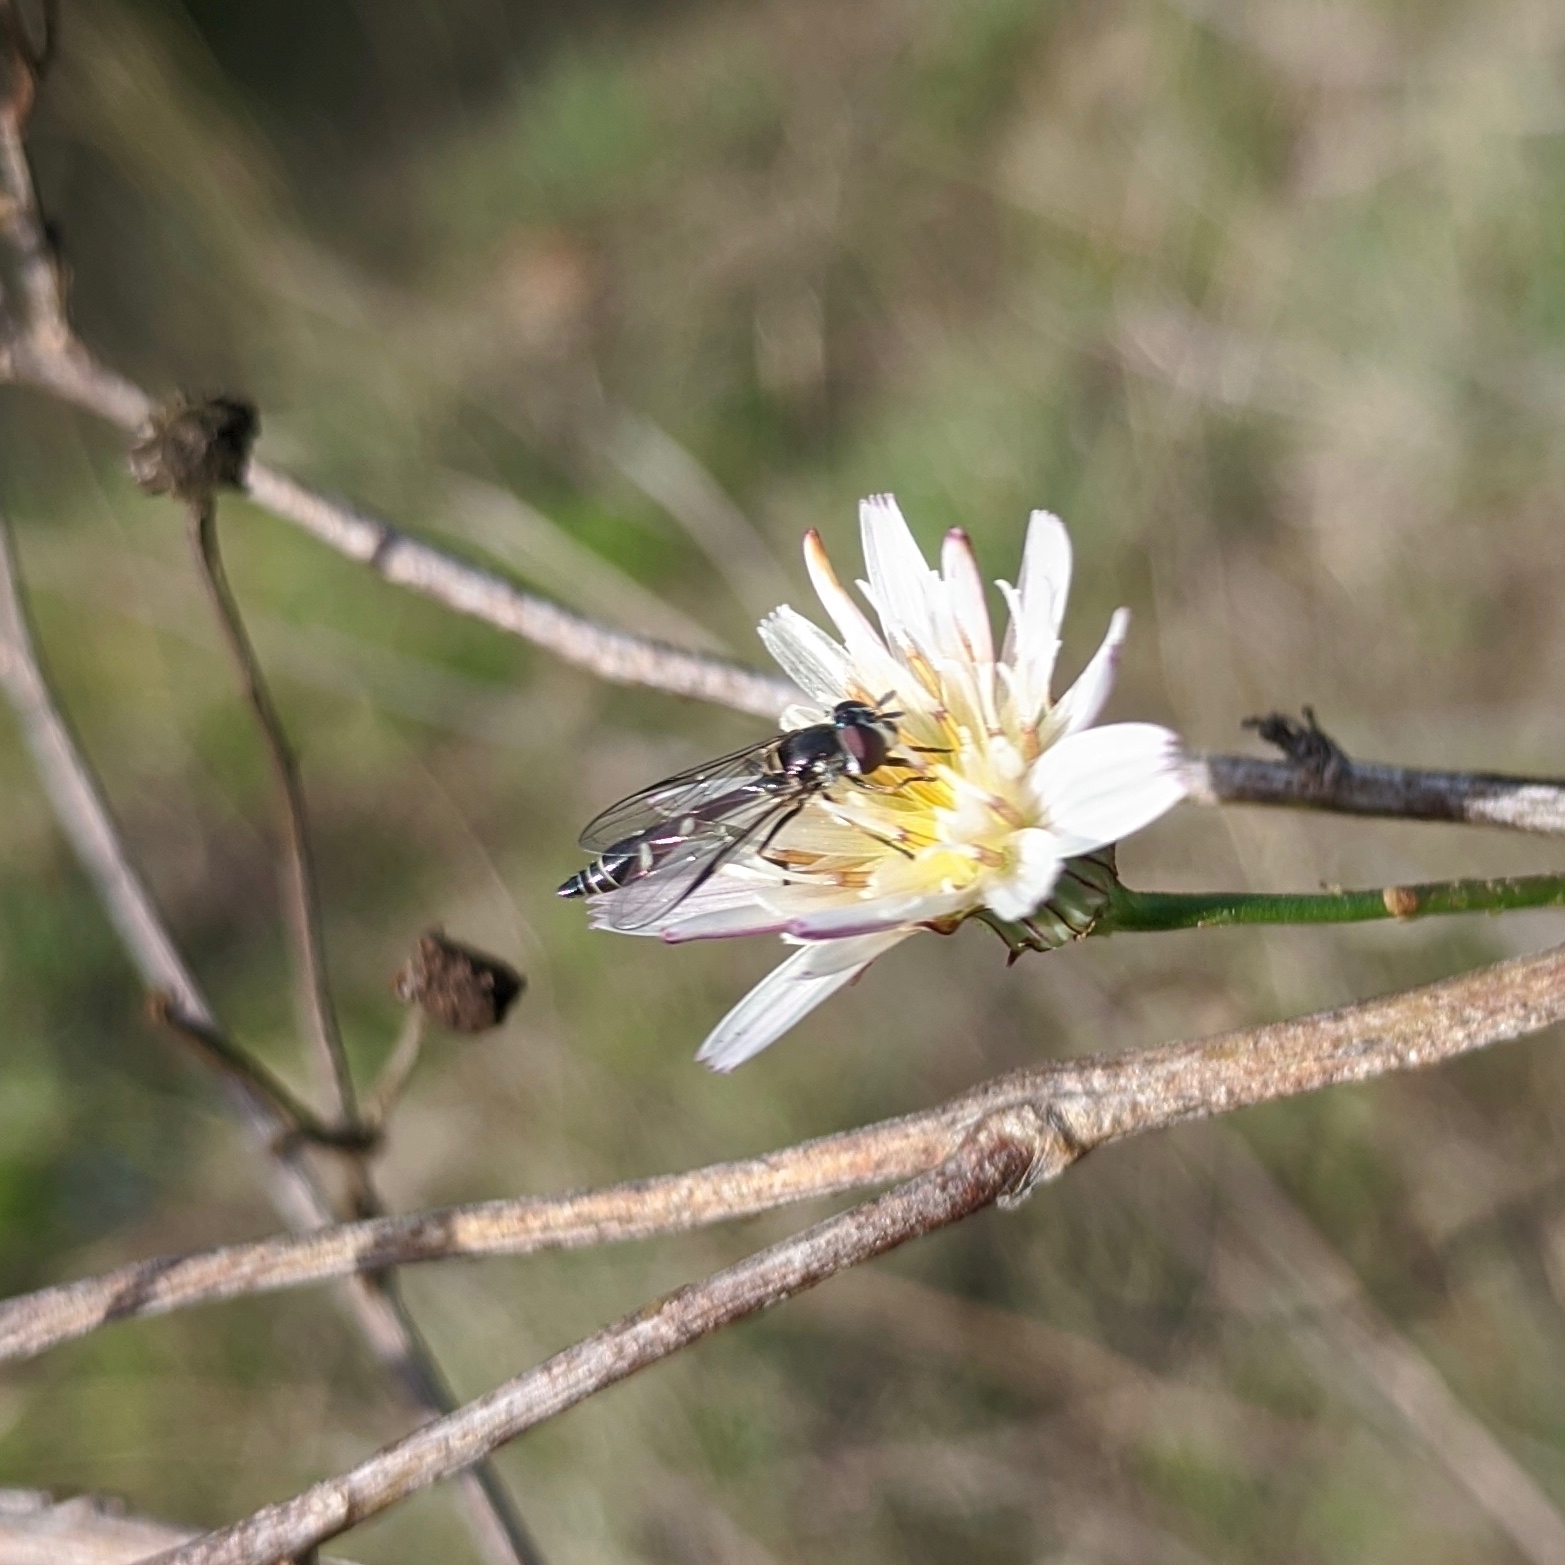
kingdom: Animalia
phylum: Arthropoda
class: Insecta
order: Diptera
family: Syrphidae
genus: Dioprosopa
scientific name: Dioprosopa clavatus
